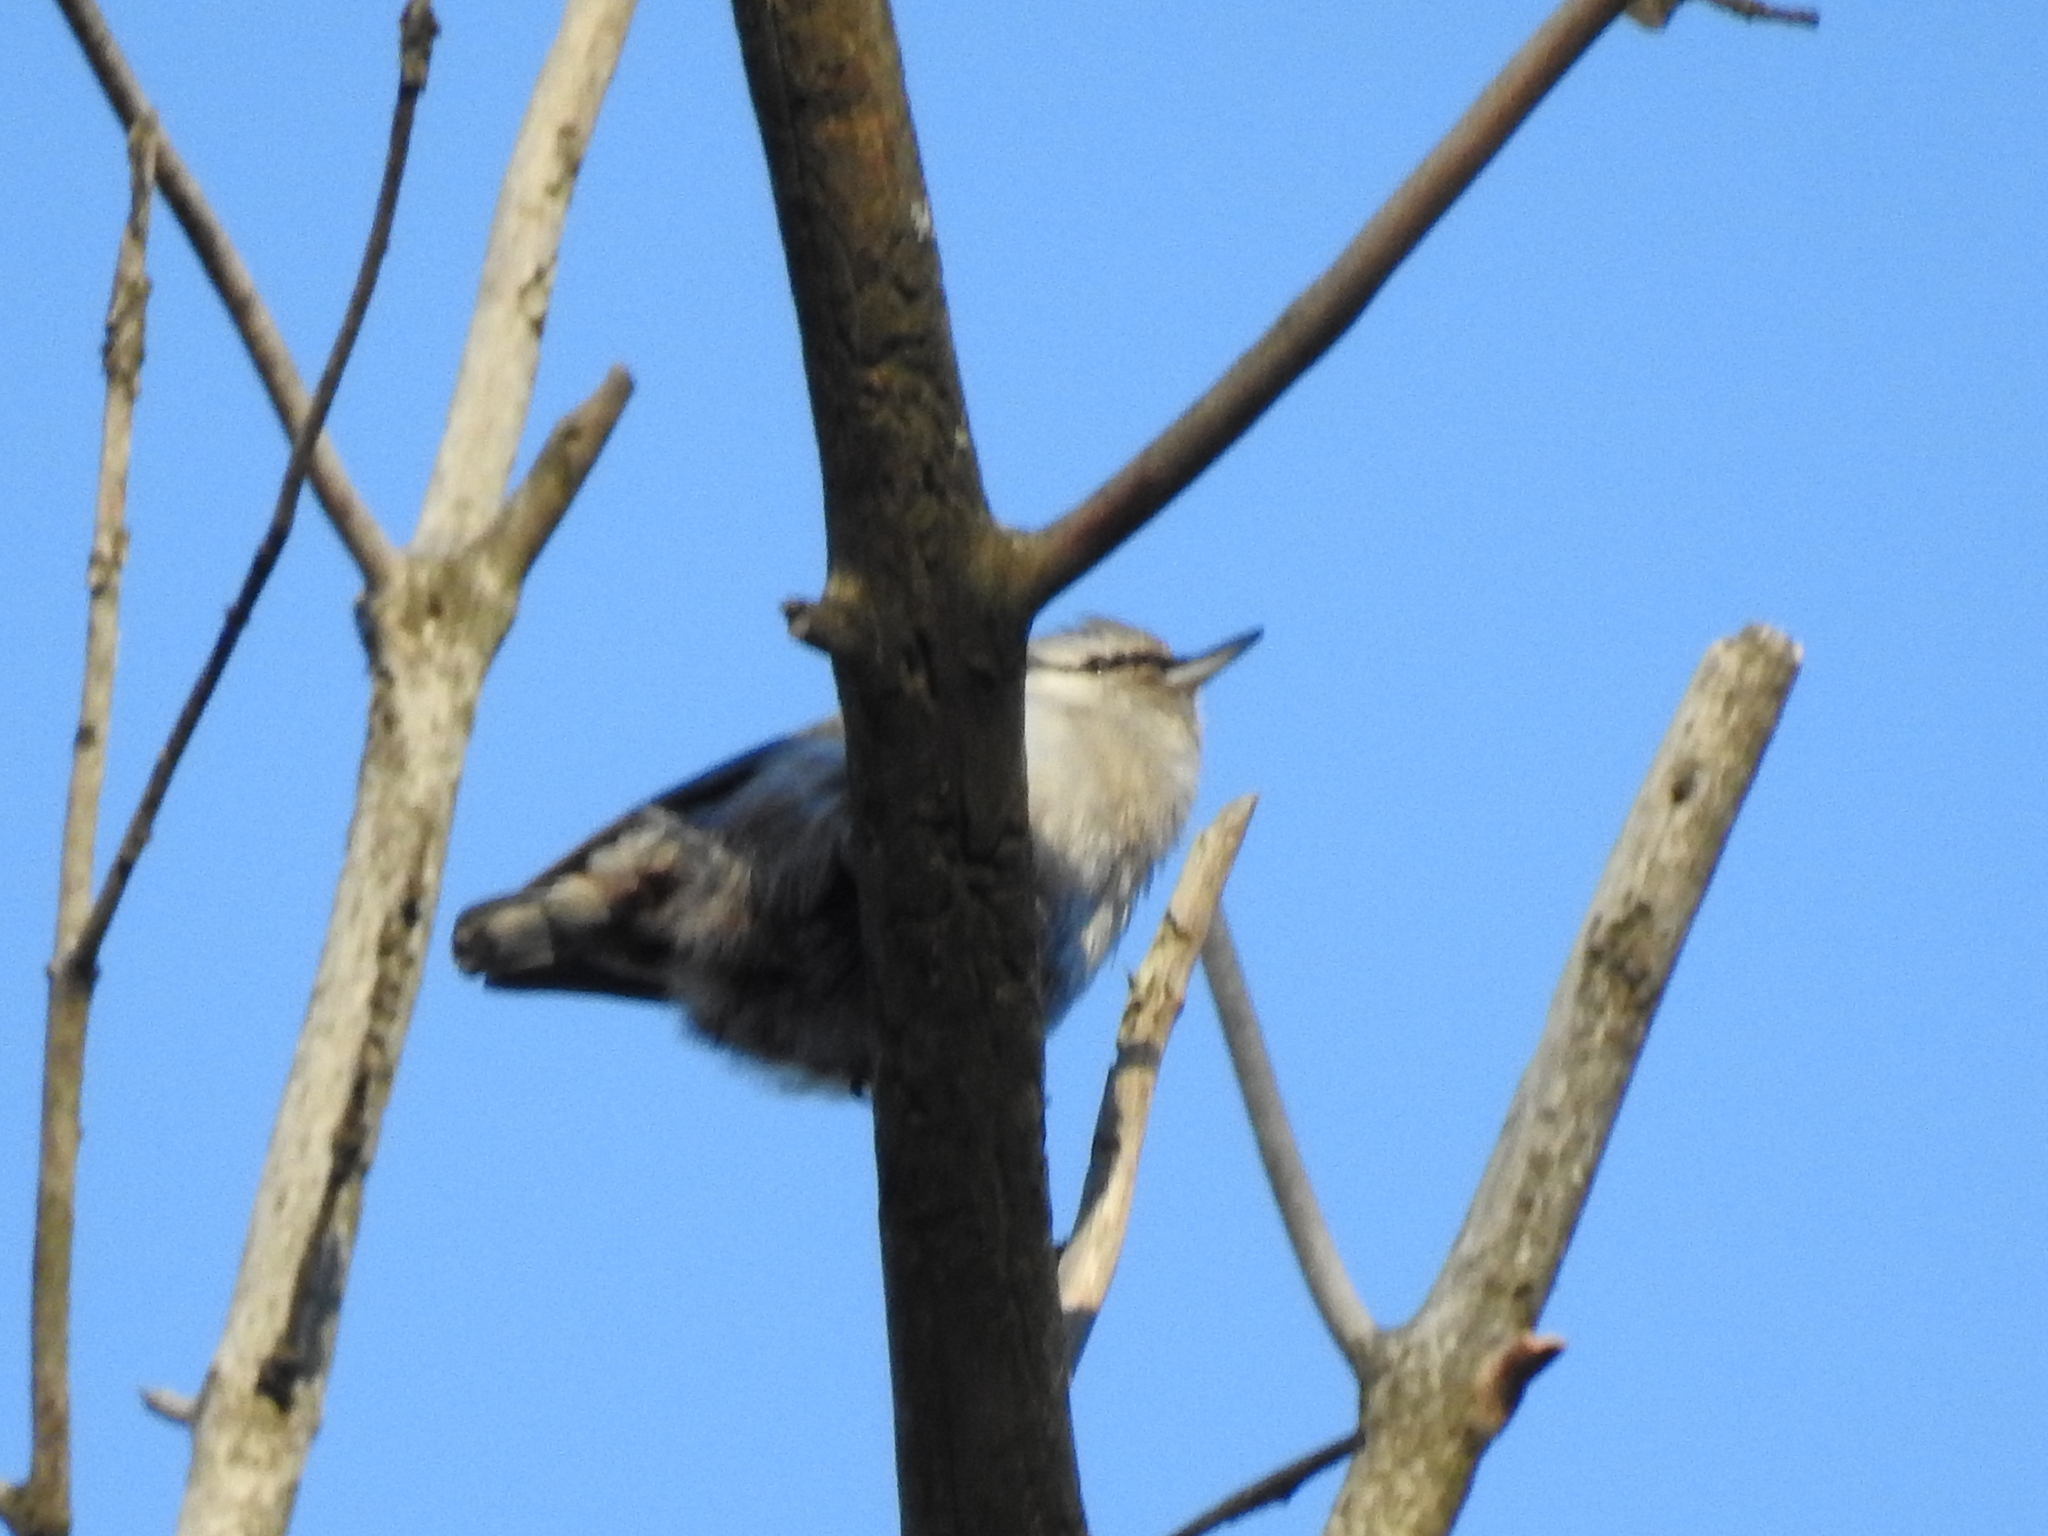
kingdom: Animalia
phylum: Chordata
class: Aves
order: Passeriformes
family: Sittidae
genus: Sitta
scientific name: Sitta europaea
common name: Eurasian nuthatch
